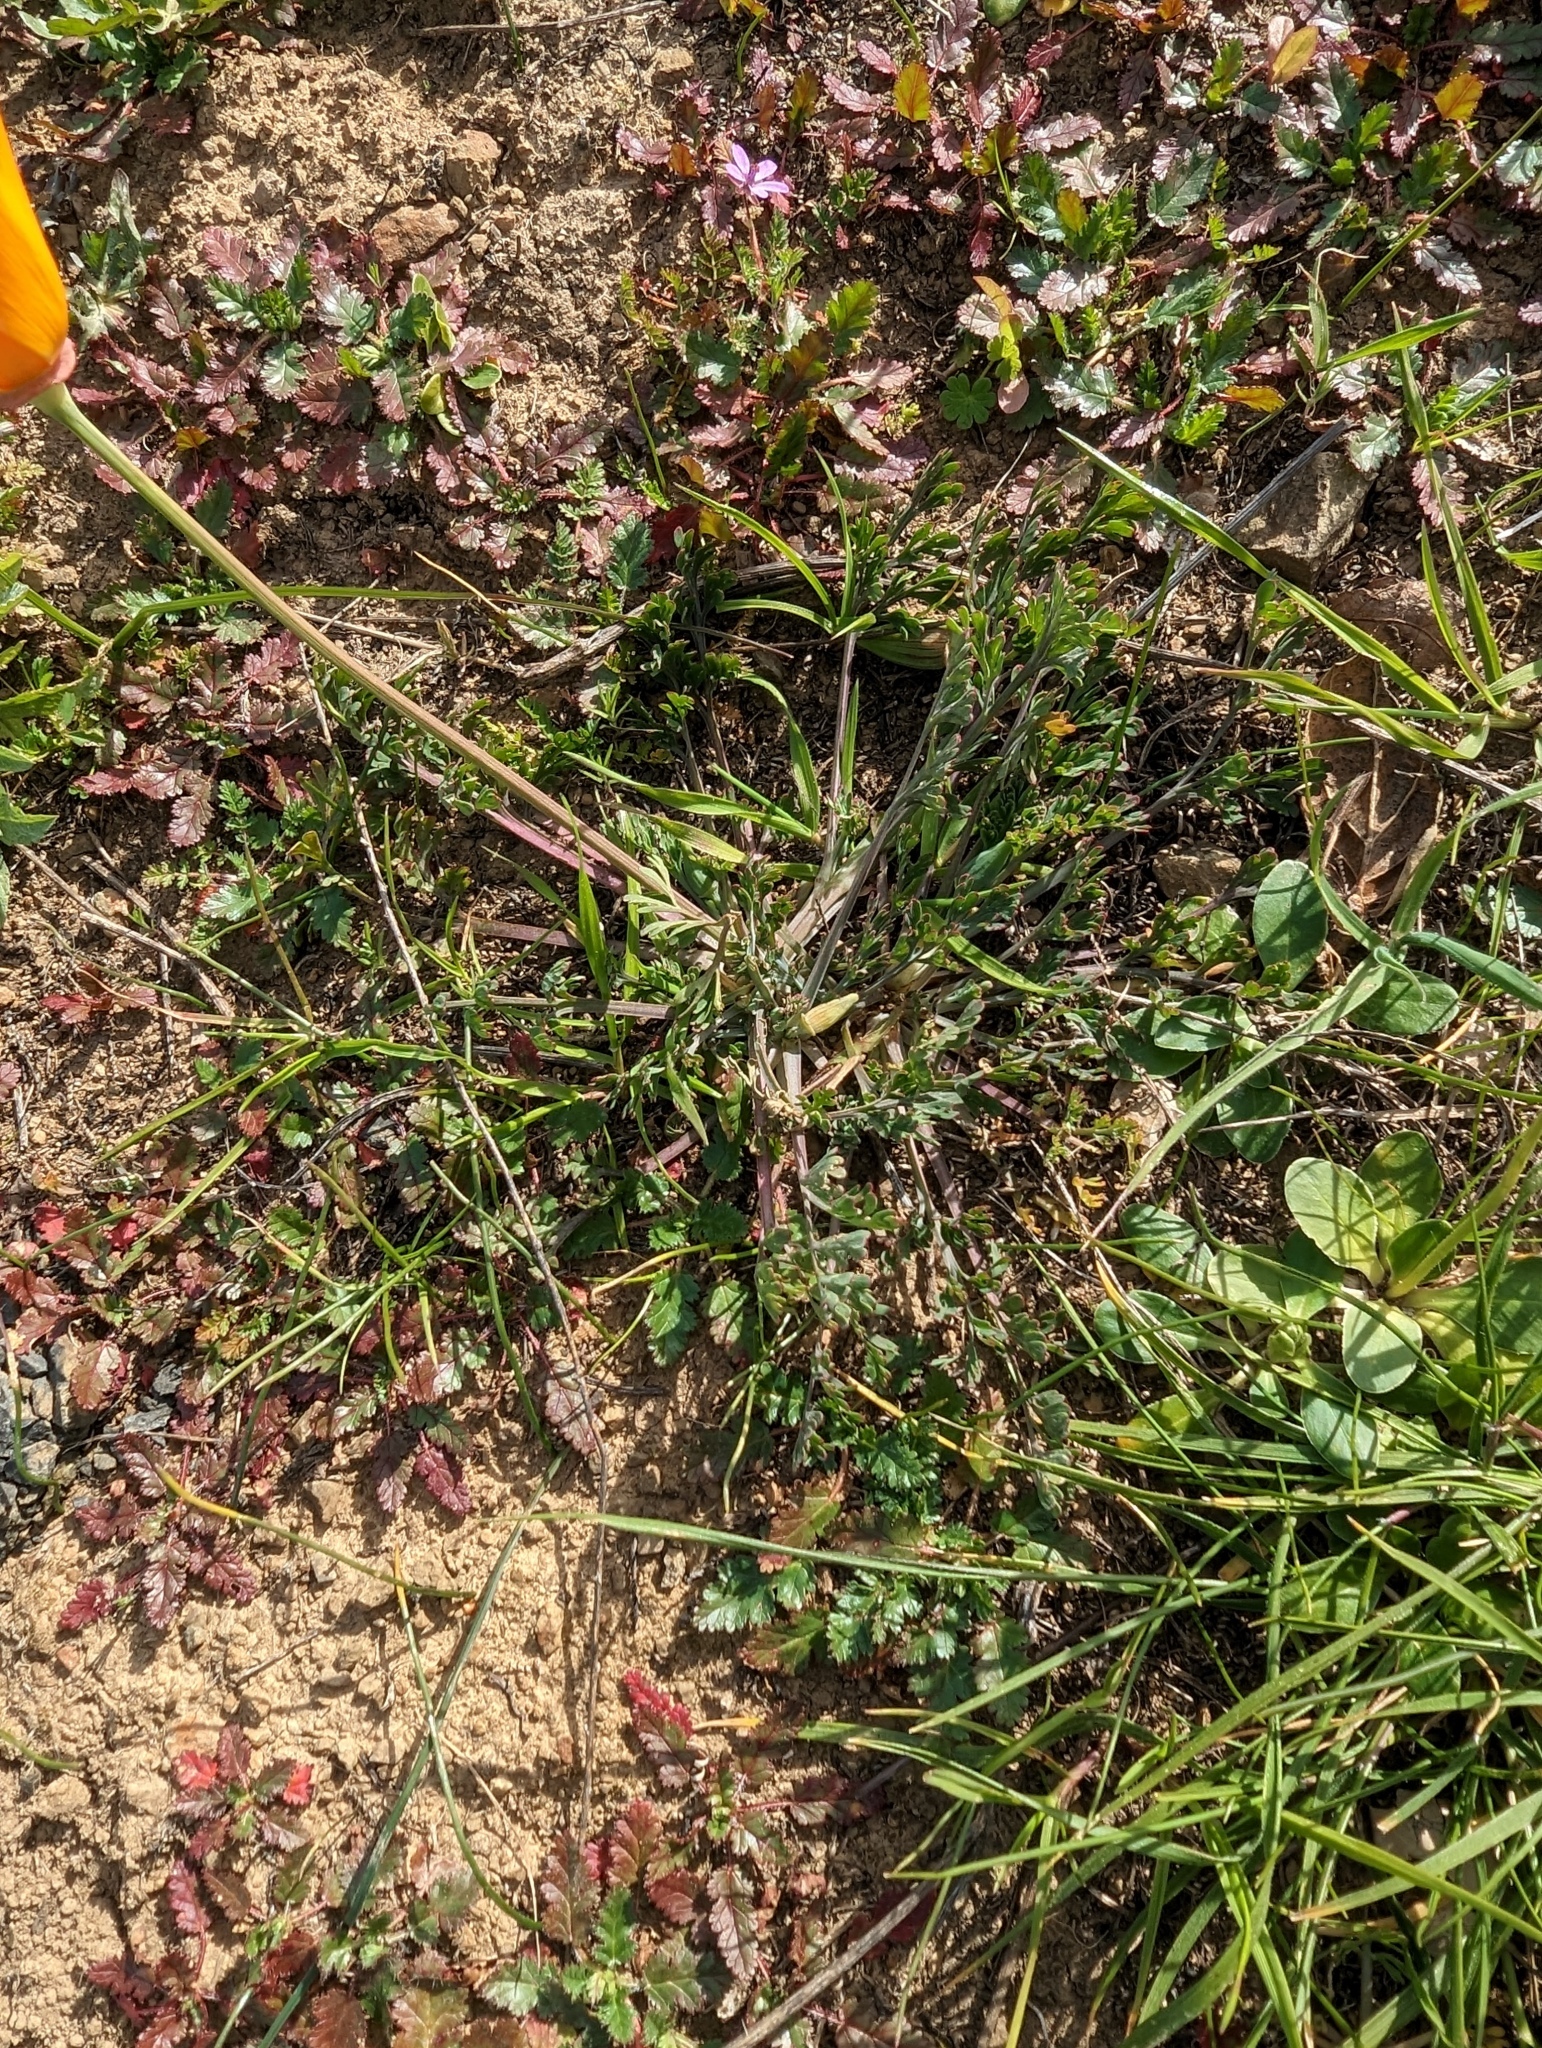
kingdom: Plantae
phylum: Tracheophyta
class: Magnoliopsida
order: Ranunculales
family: Papaveraceae
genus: Eschscholzia
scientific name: Eschscholzia californica
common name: California poppy
